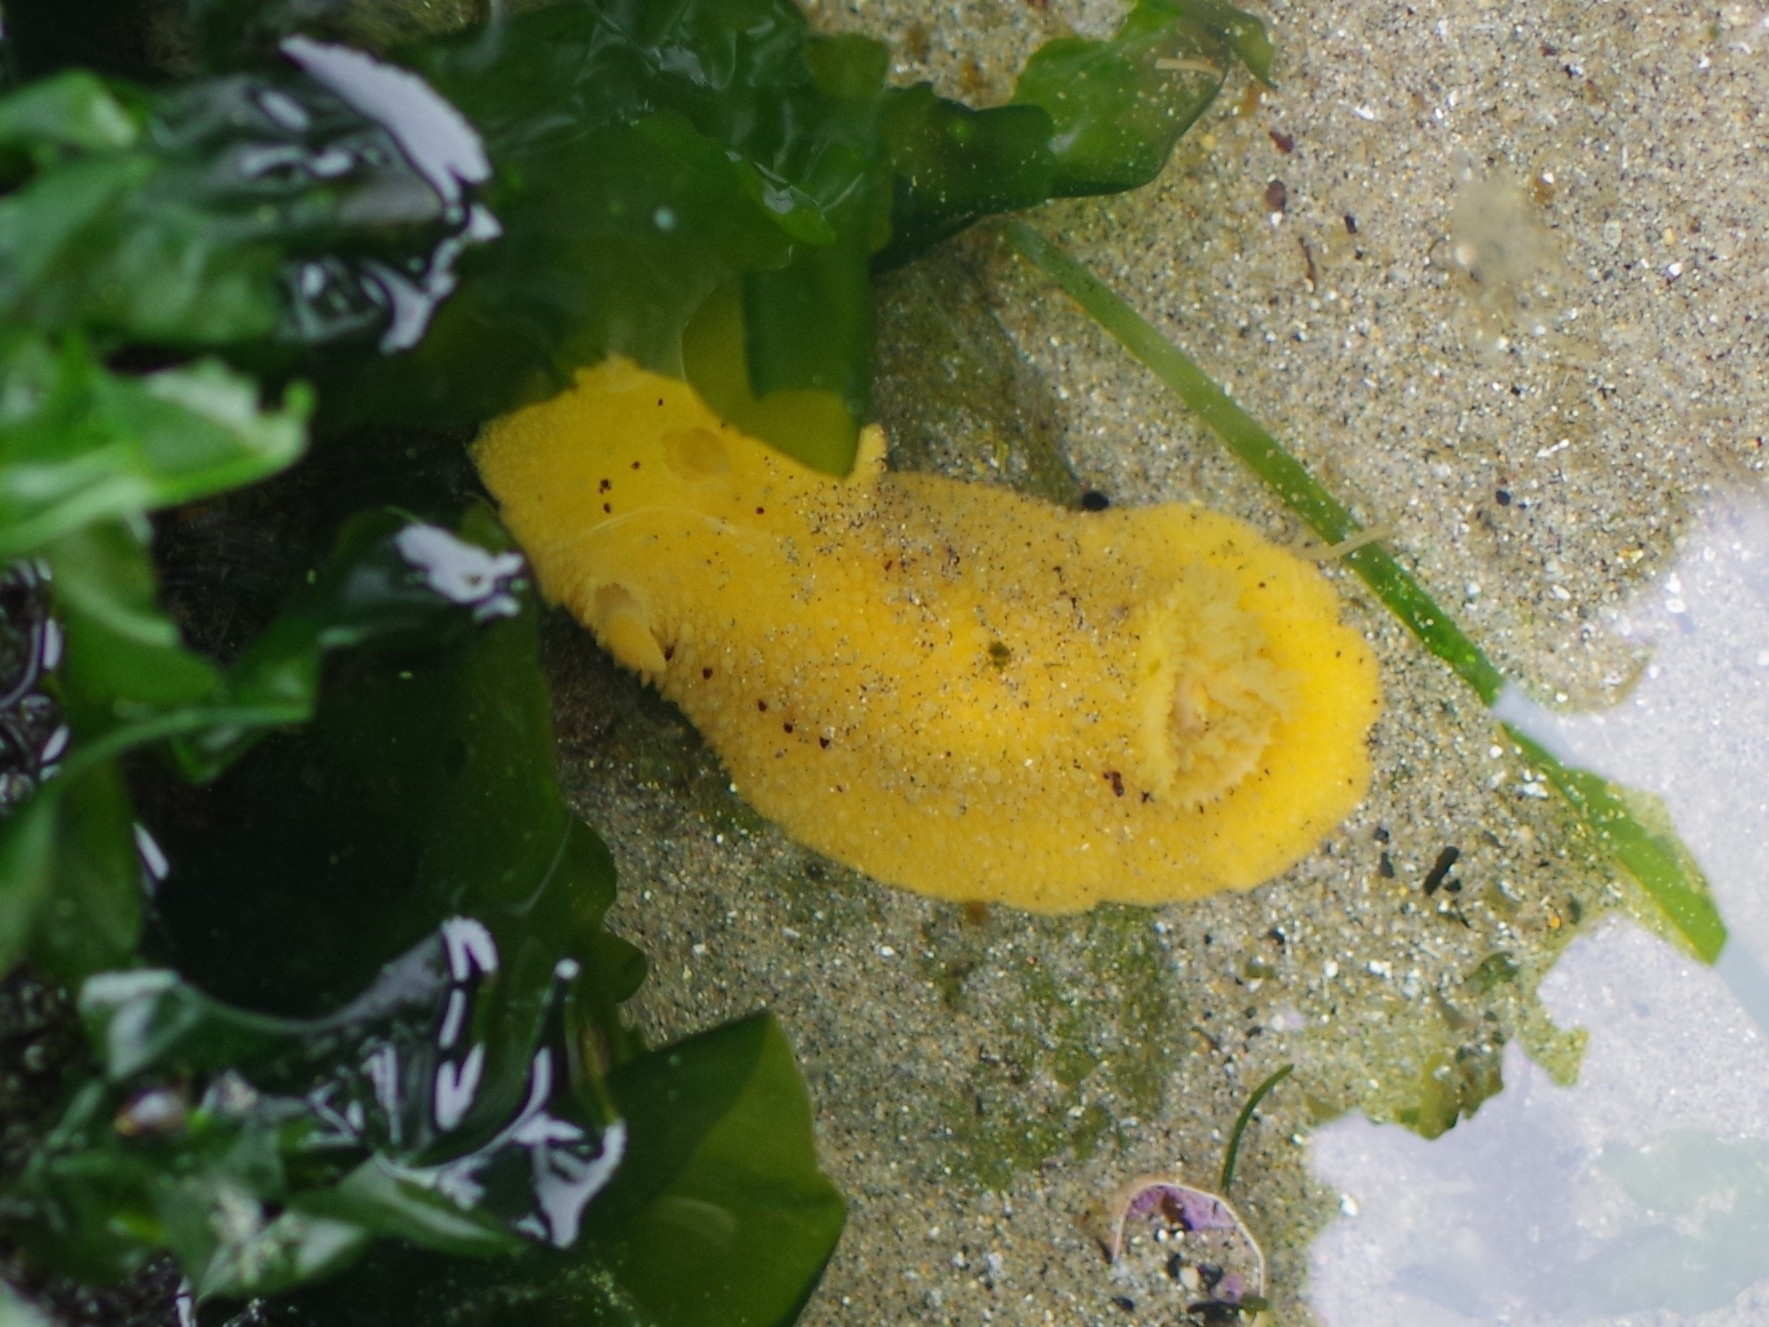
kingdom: Animalia
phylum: Mollusca
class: Gastropoda
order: Nudibranchia
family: Dorididae
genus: Doris
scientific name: Doris montereyensis
